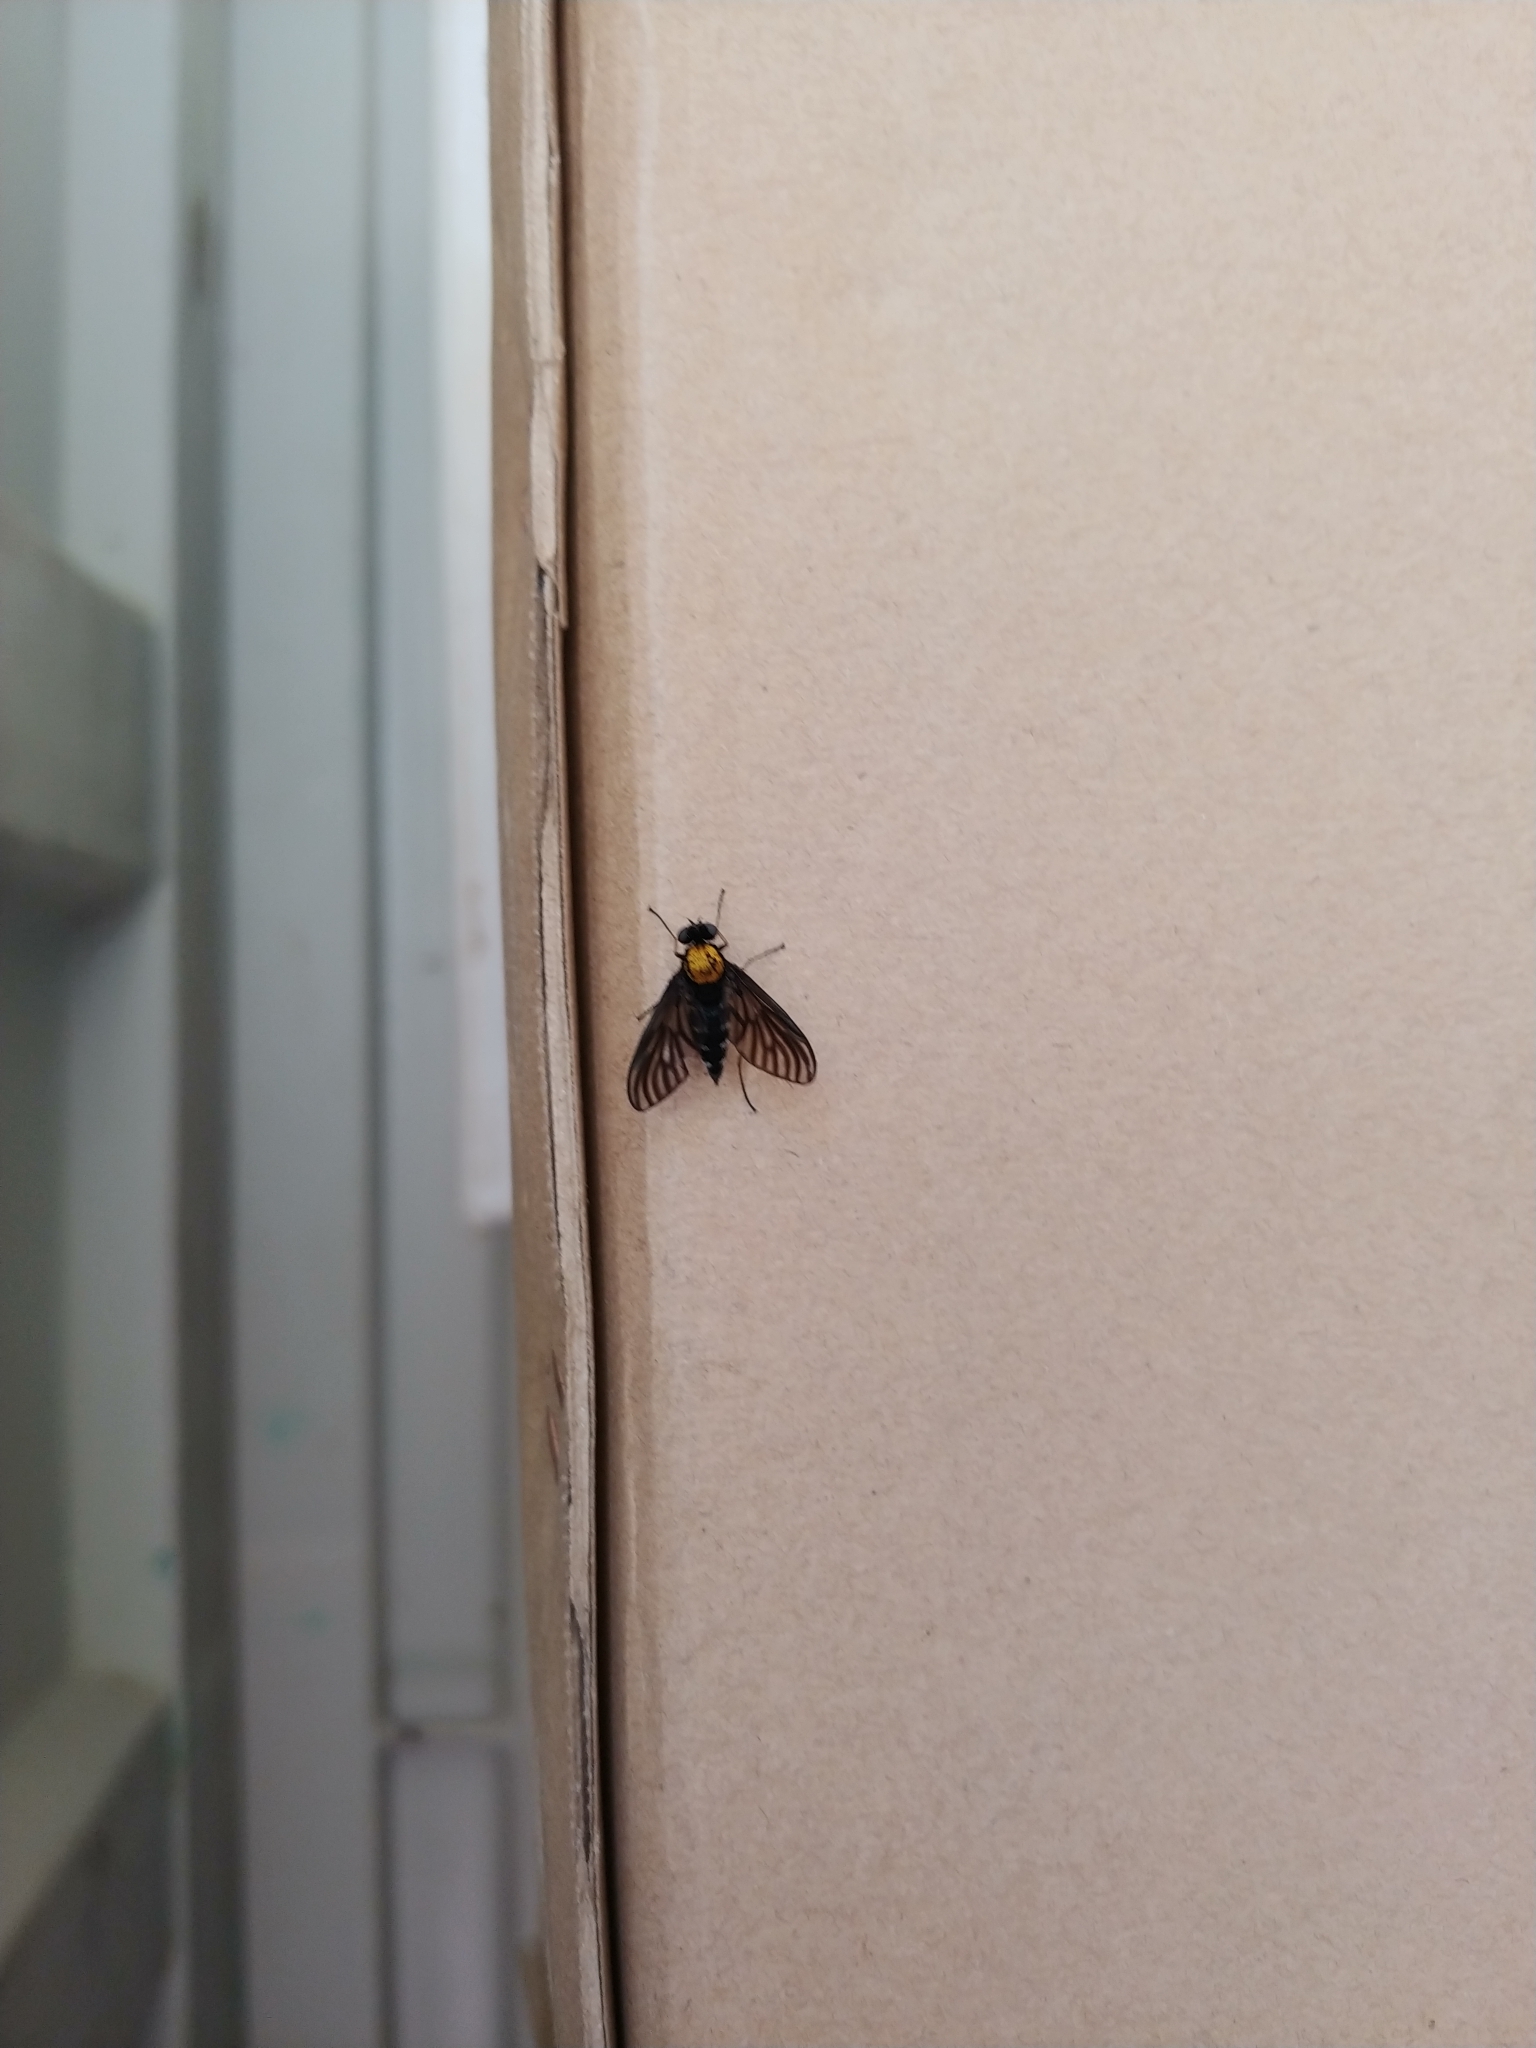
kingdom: Animalia
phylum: Arthropoda
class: Insecta
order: Diptera
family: Rhagionidae
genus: Chrysopilus
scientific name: Chrysopilus thoracicus
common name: Golden-backed snipe fly
